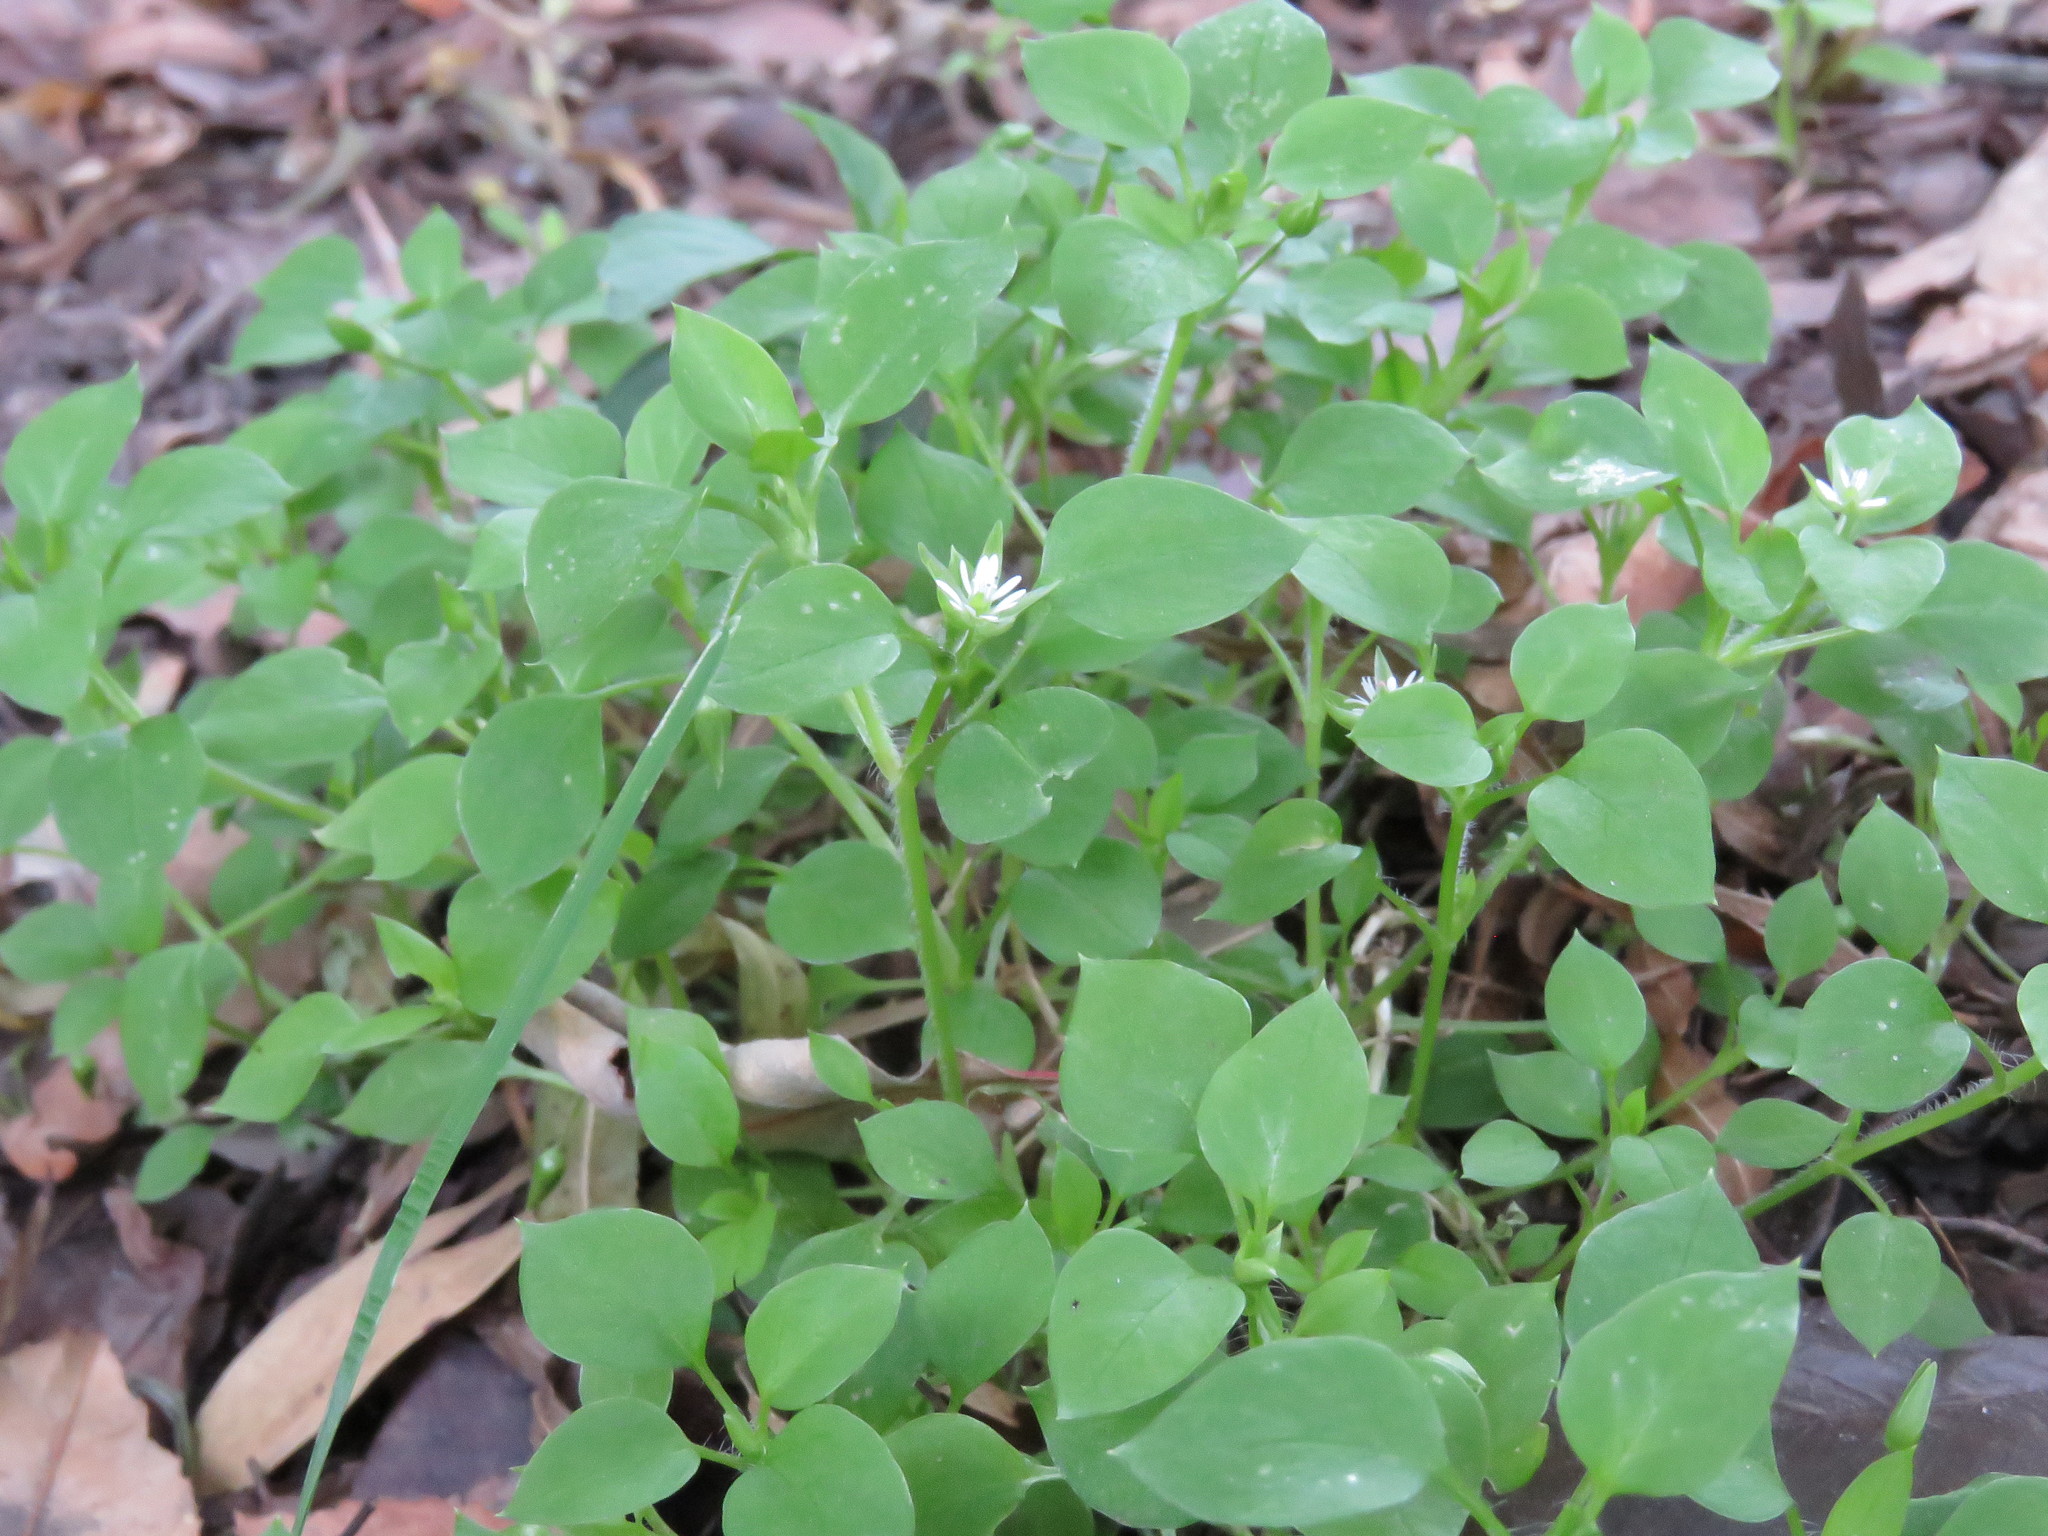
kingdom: Plantae
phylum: Tracheophyta
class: Magnoliopsida
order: Caryophyllales
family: Caryophyllaceae
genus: Stellaria
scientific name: Stellaria media
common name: Common chickweed
